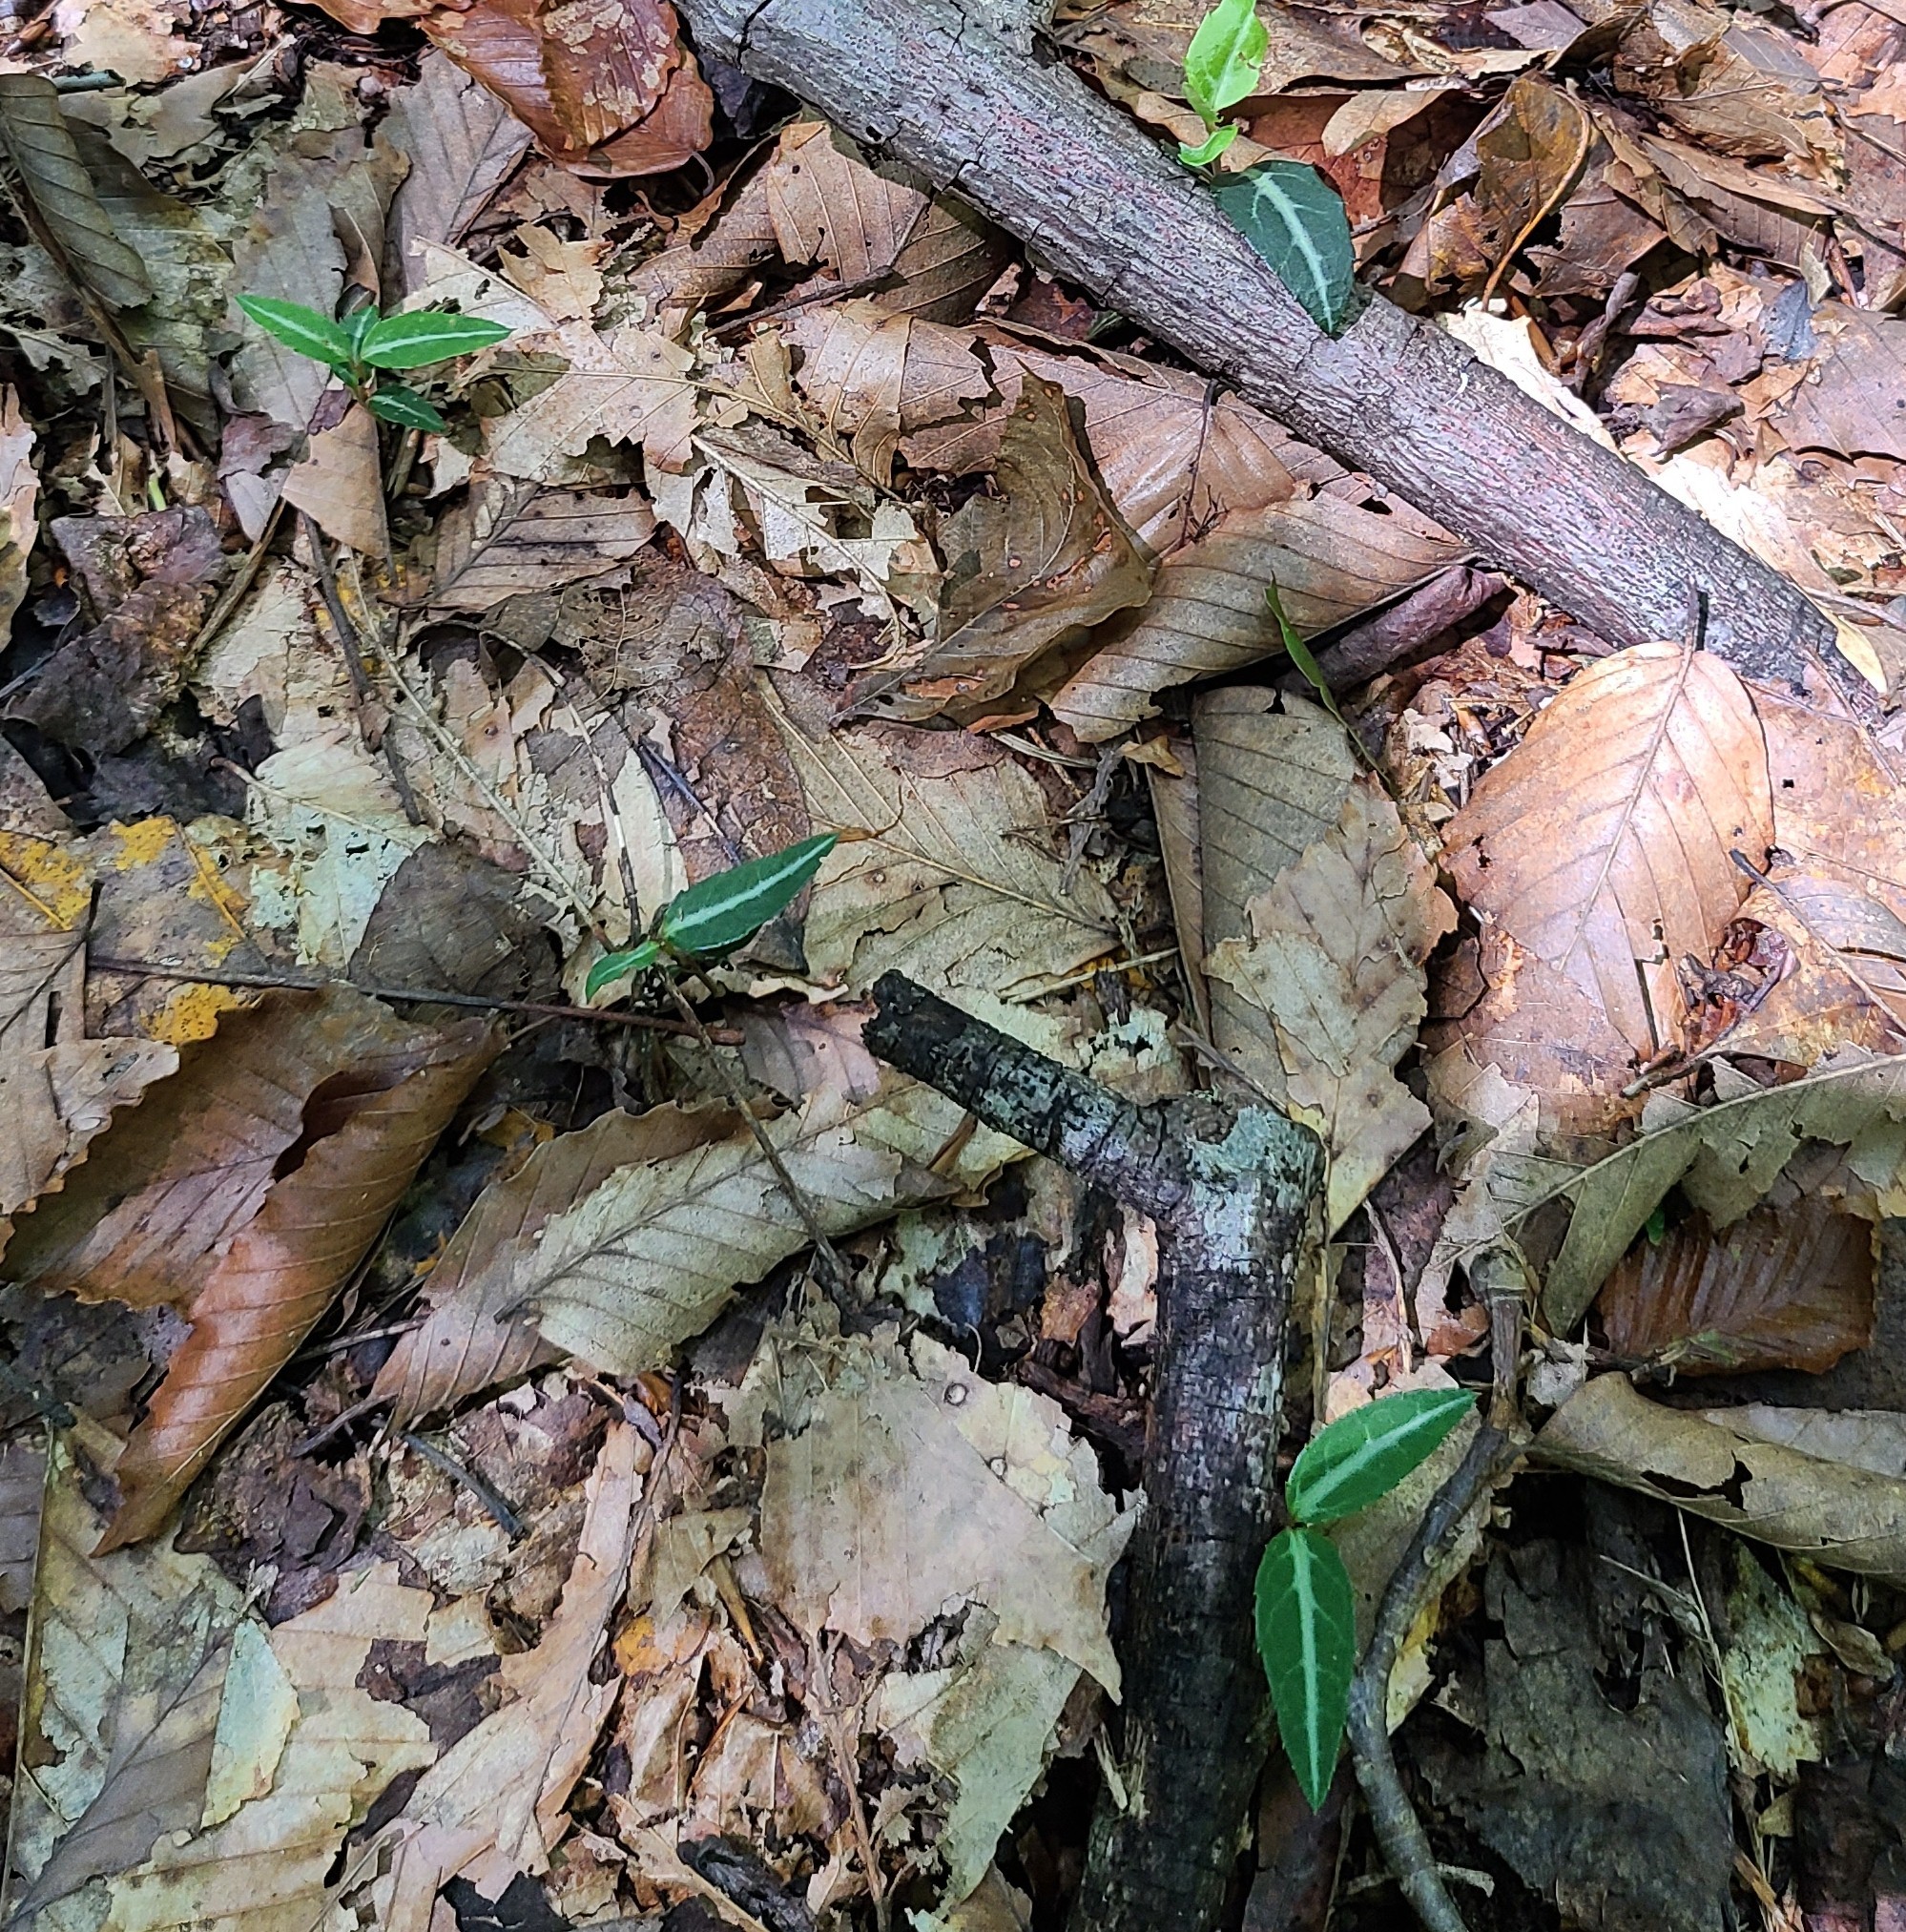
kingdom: Plantae
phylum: Tracheophyta
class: Magnoliopsida
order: Ericales
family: Ericaceae
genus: Chimaphila
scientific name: Chimaphila maculata
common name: Spotted pipsissewa
